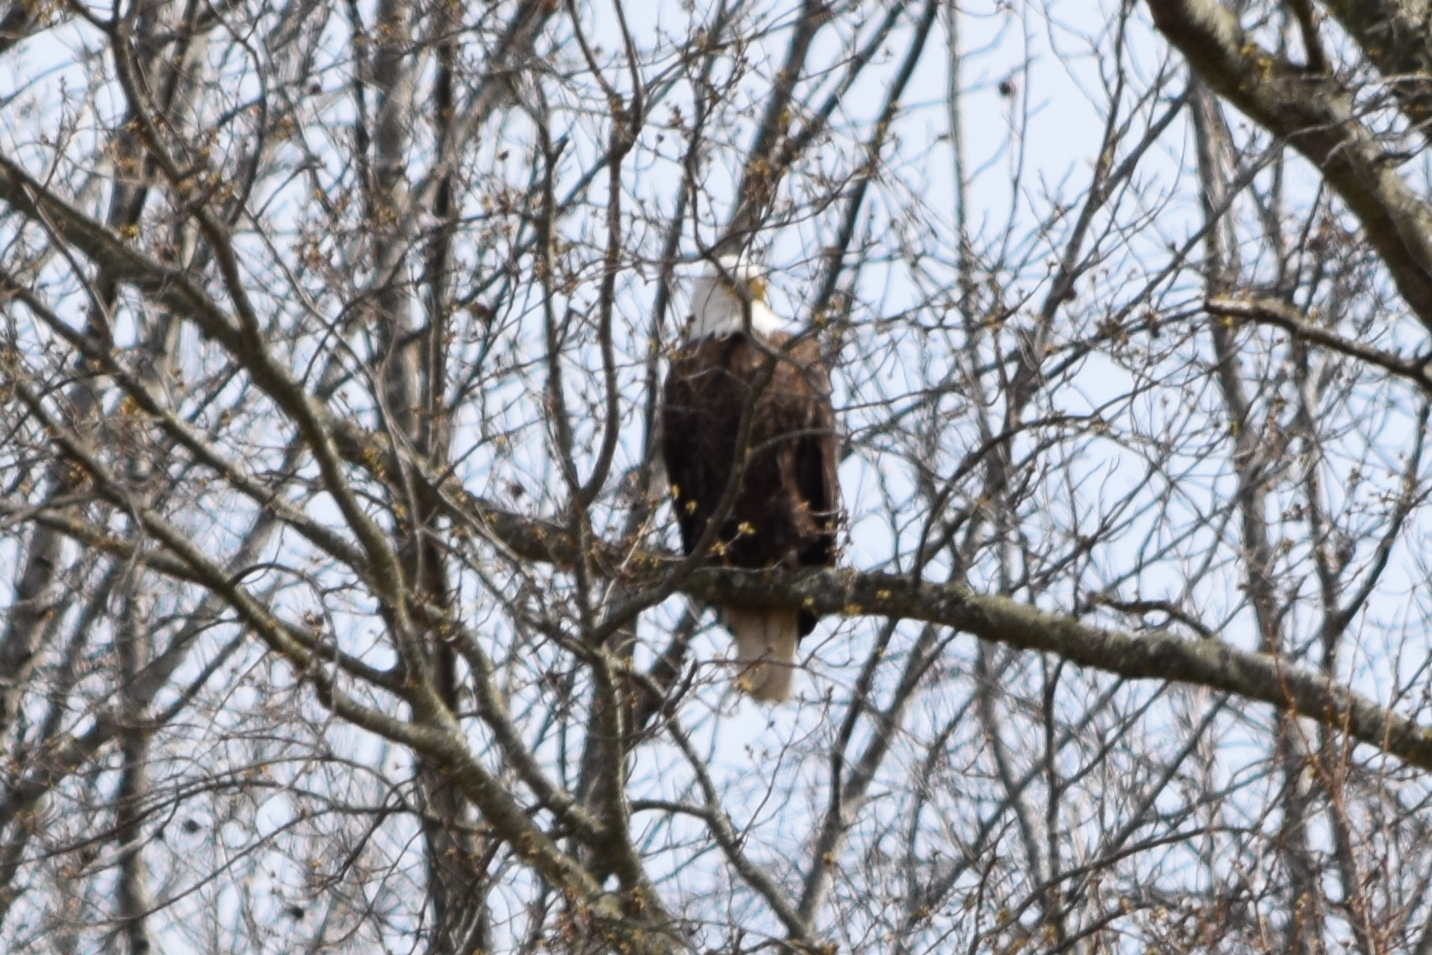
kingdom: Animalia
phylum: Chordata
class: Aves
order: Accipitriformes
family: Accipitridae
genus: Haliaeetus
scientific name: Haliaeetus leucocephalus
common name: Bald eagle
